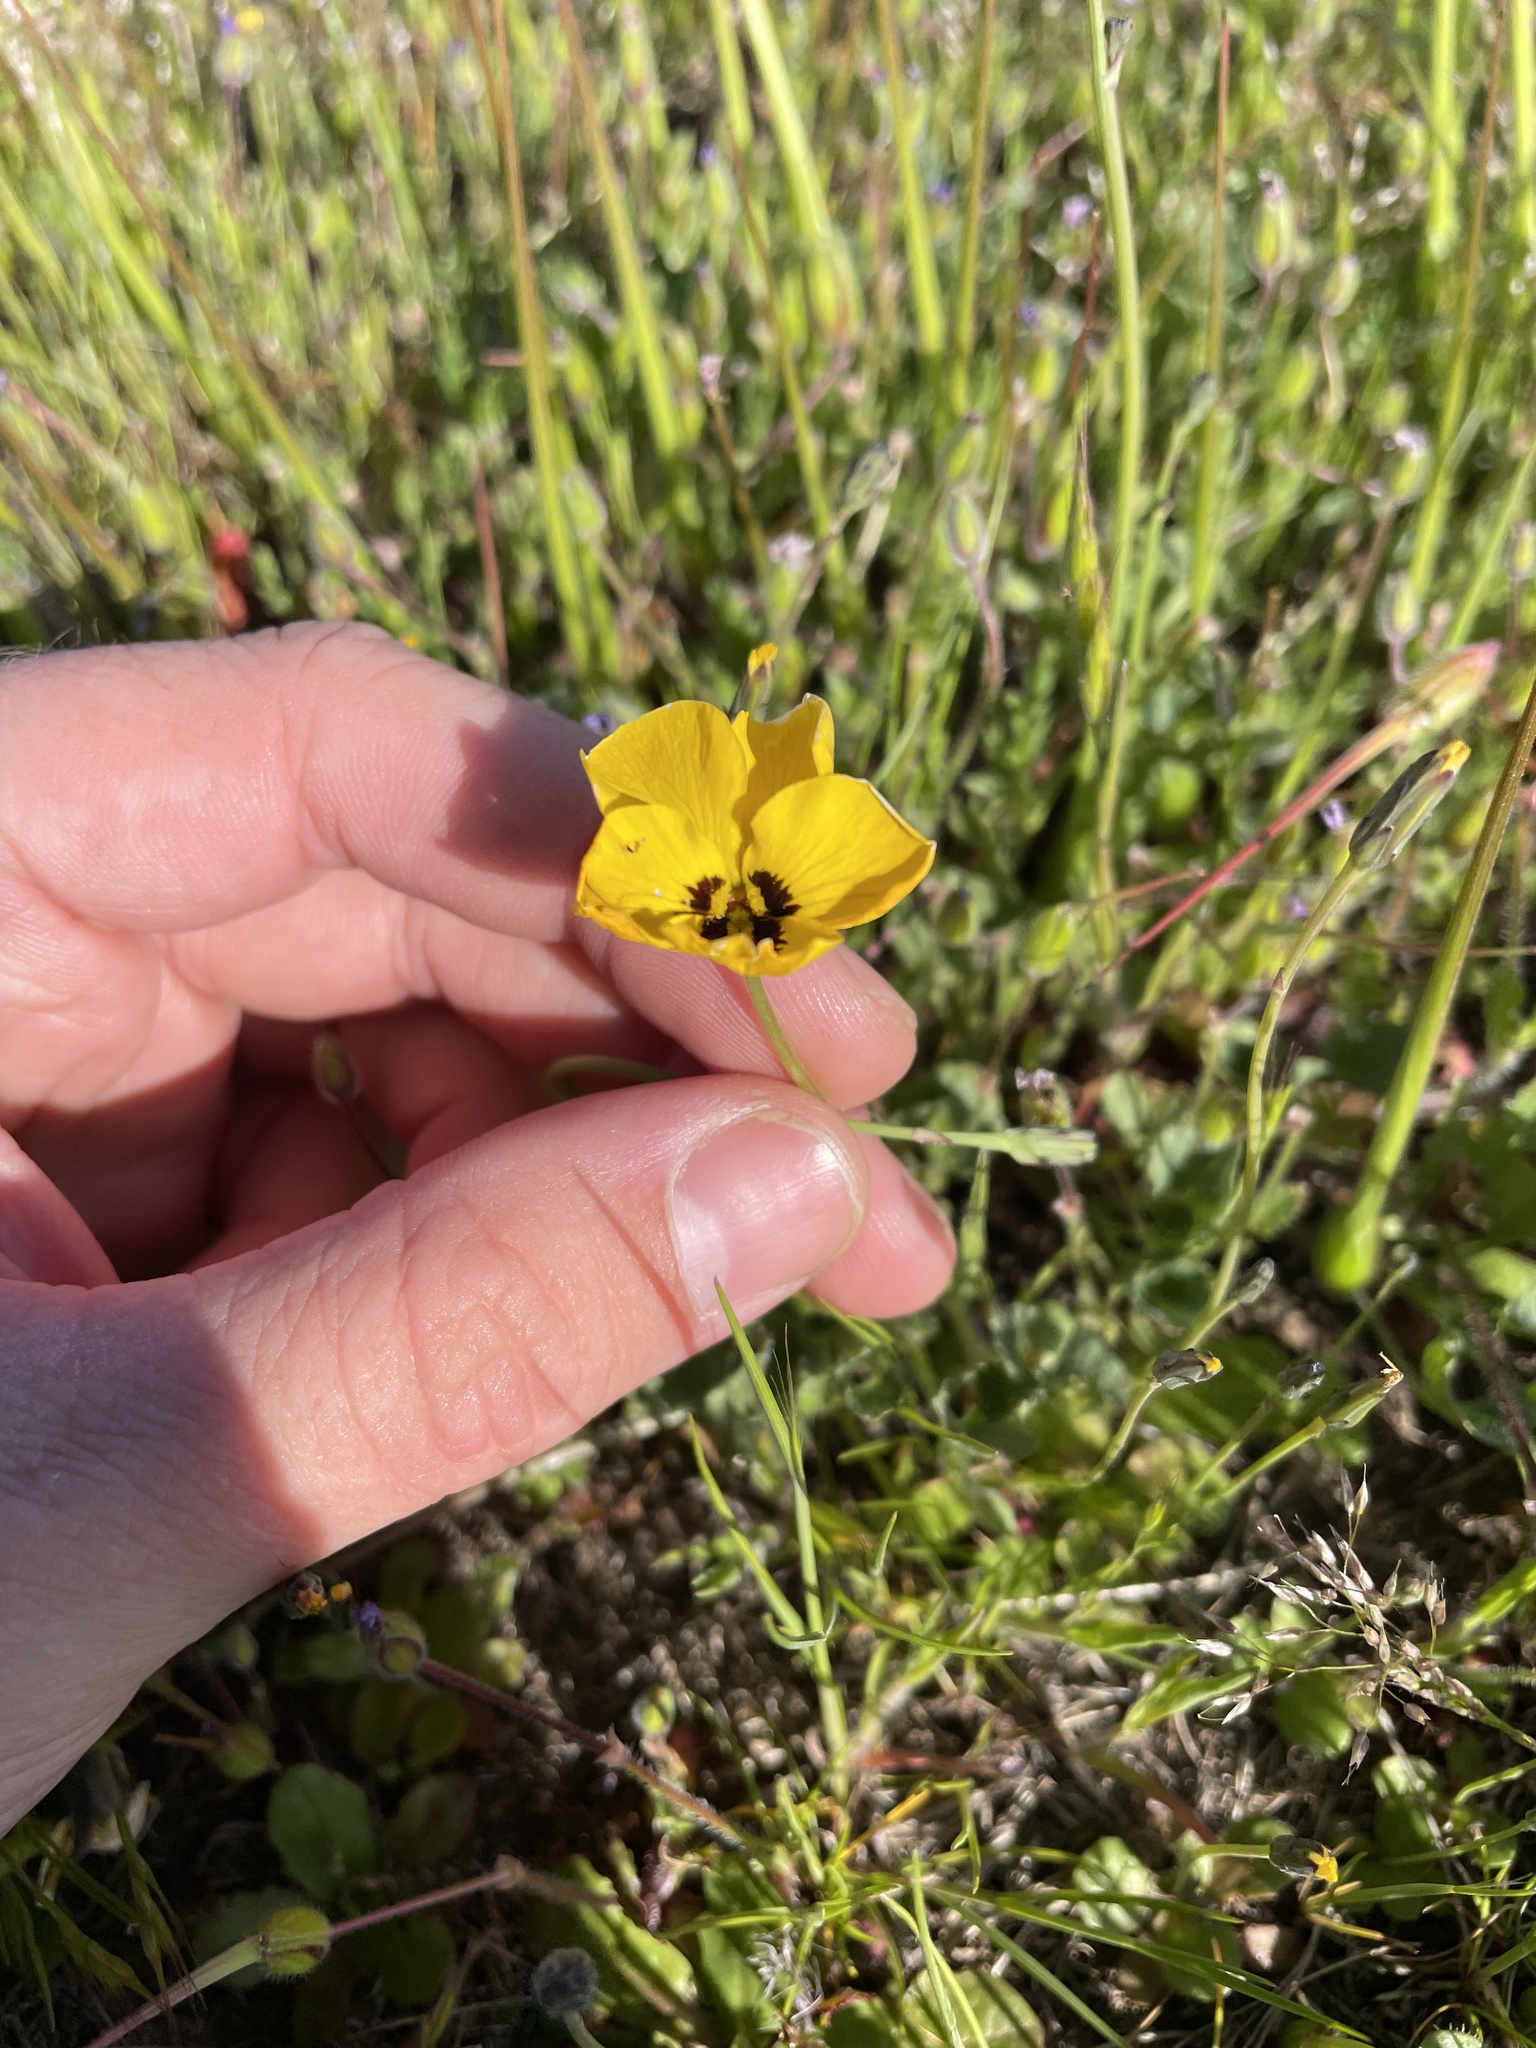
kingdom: Plantae
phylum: Tracheophyta
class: Magnoliopsida
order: Malpighiales
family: Violaceae
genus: Viola
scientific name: Viola pedunculata
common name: California golden violet
